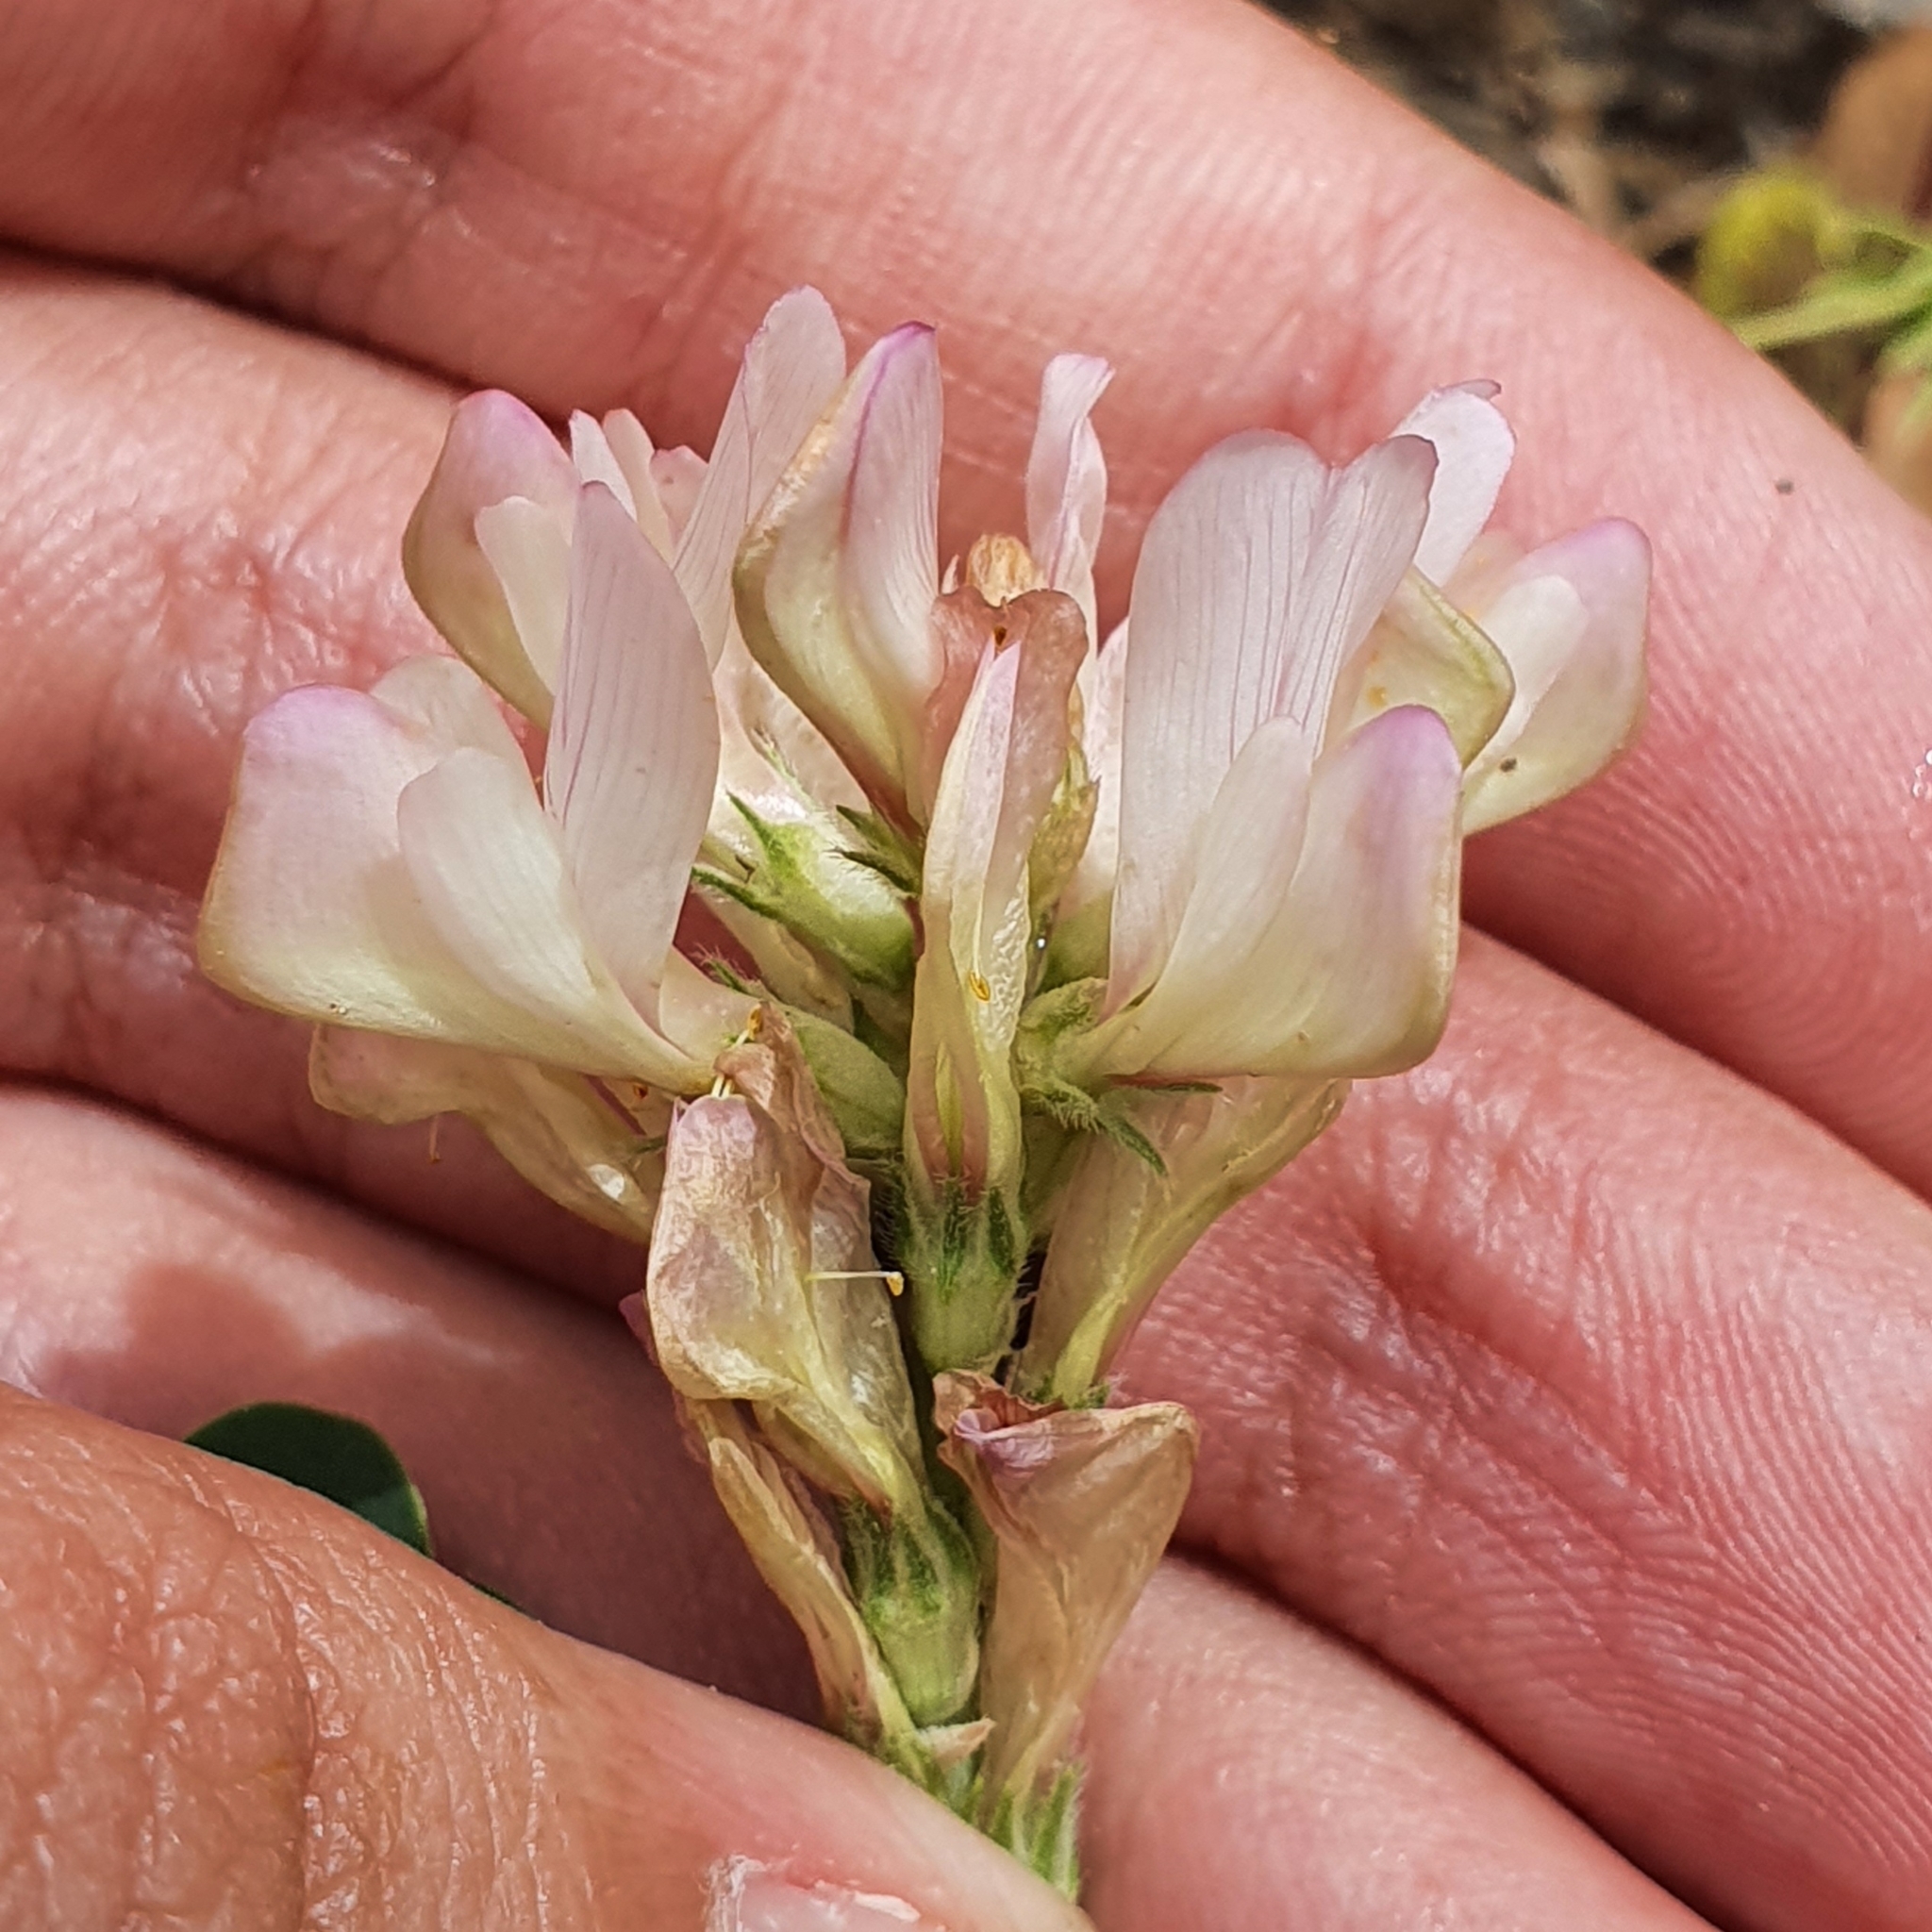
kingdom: Plantae
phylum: Tracheophyta
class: Magnoliopsida
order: Fabales
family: Fabaceae
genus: Sulla
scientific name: Sulla pallida
